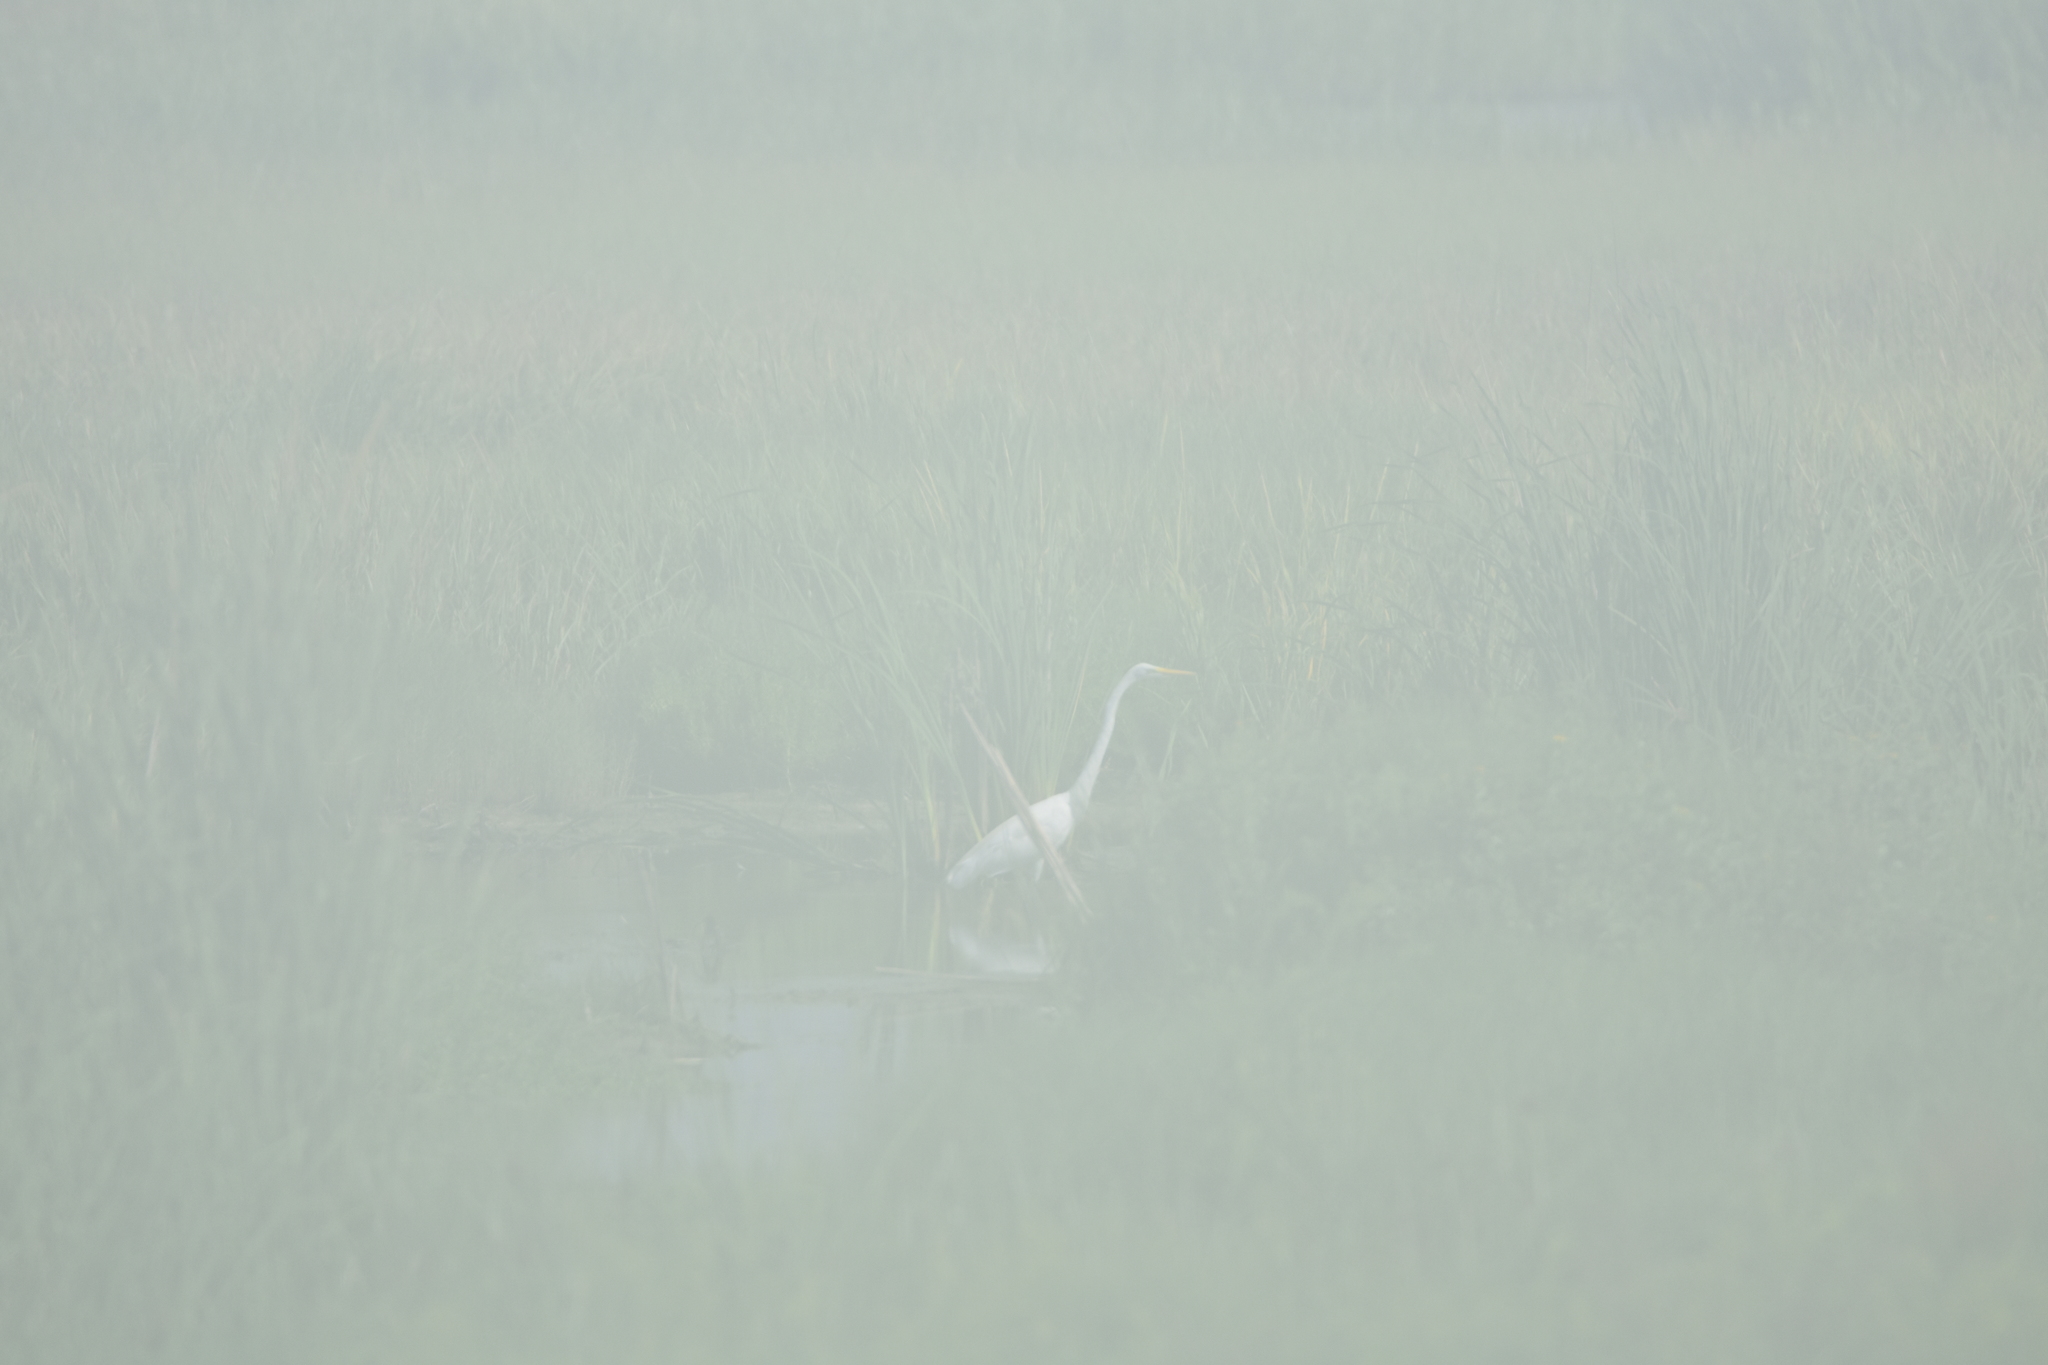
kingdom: Animalia
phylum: Chordata
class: Aves
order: Pelecaniformes
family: Ardeidae
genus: Ardea
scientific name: Ardea alba
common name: Great egret
